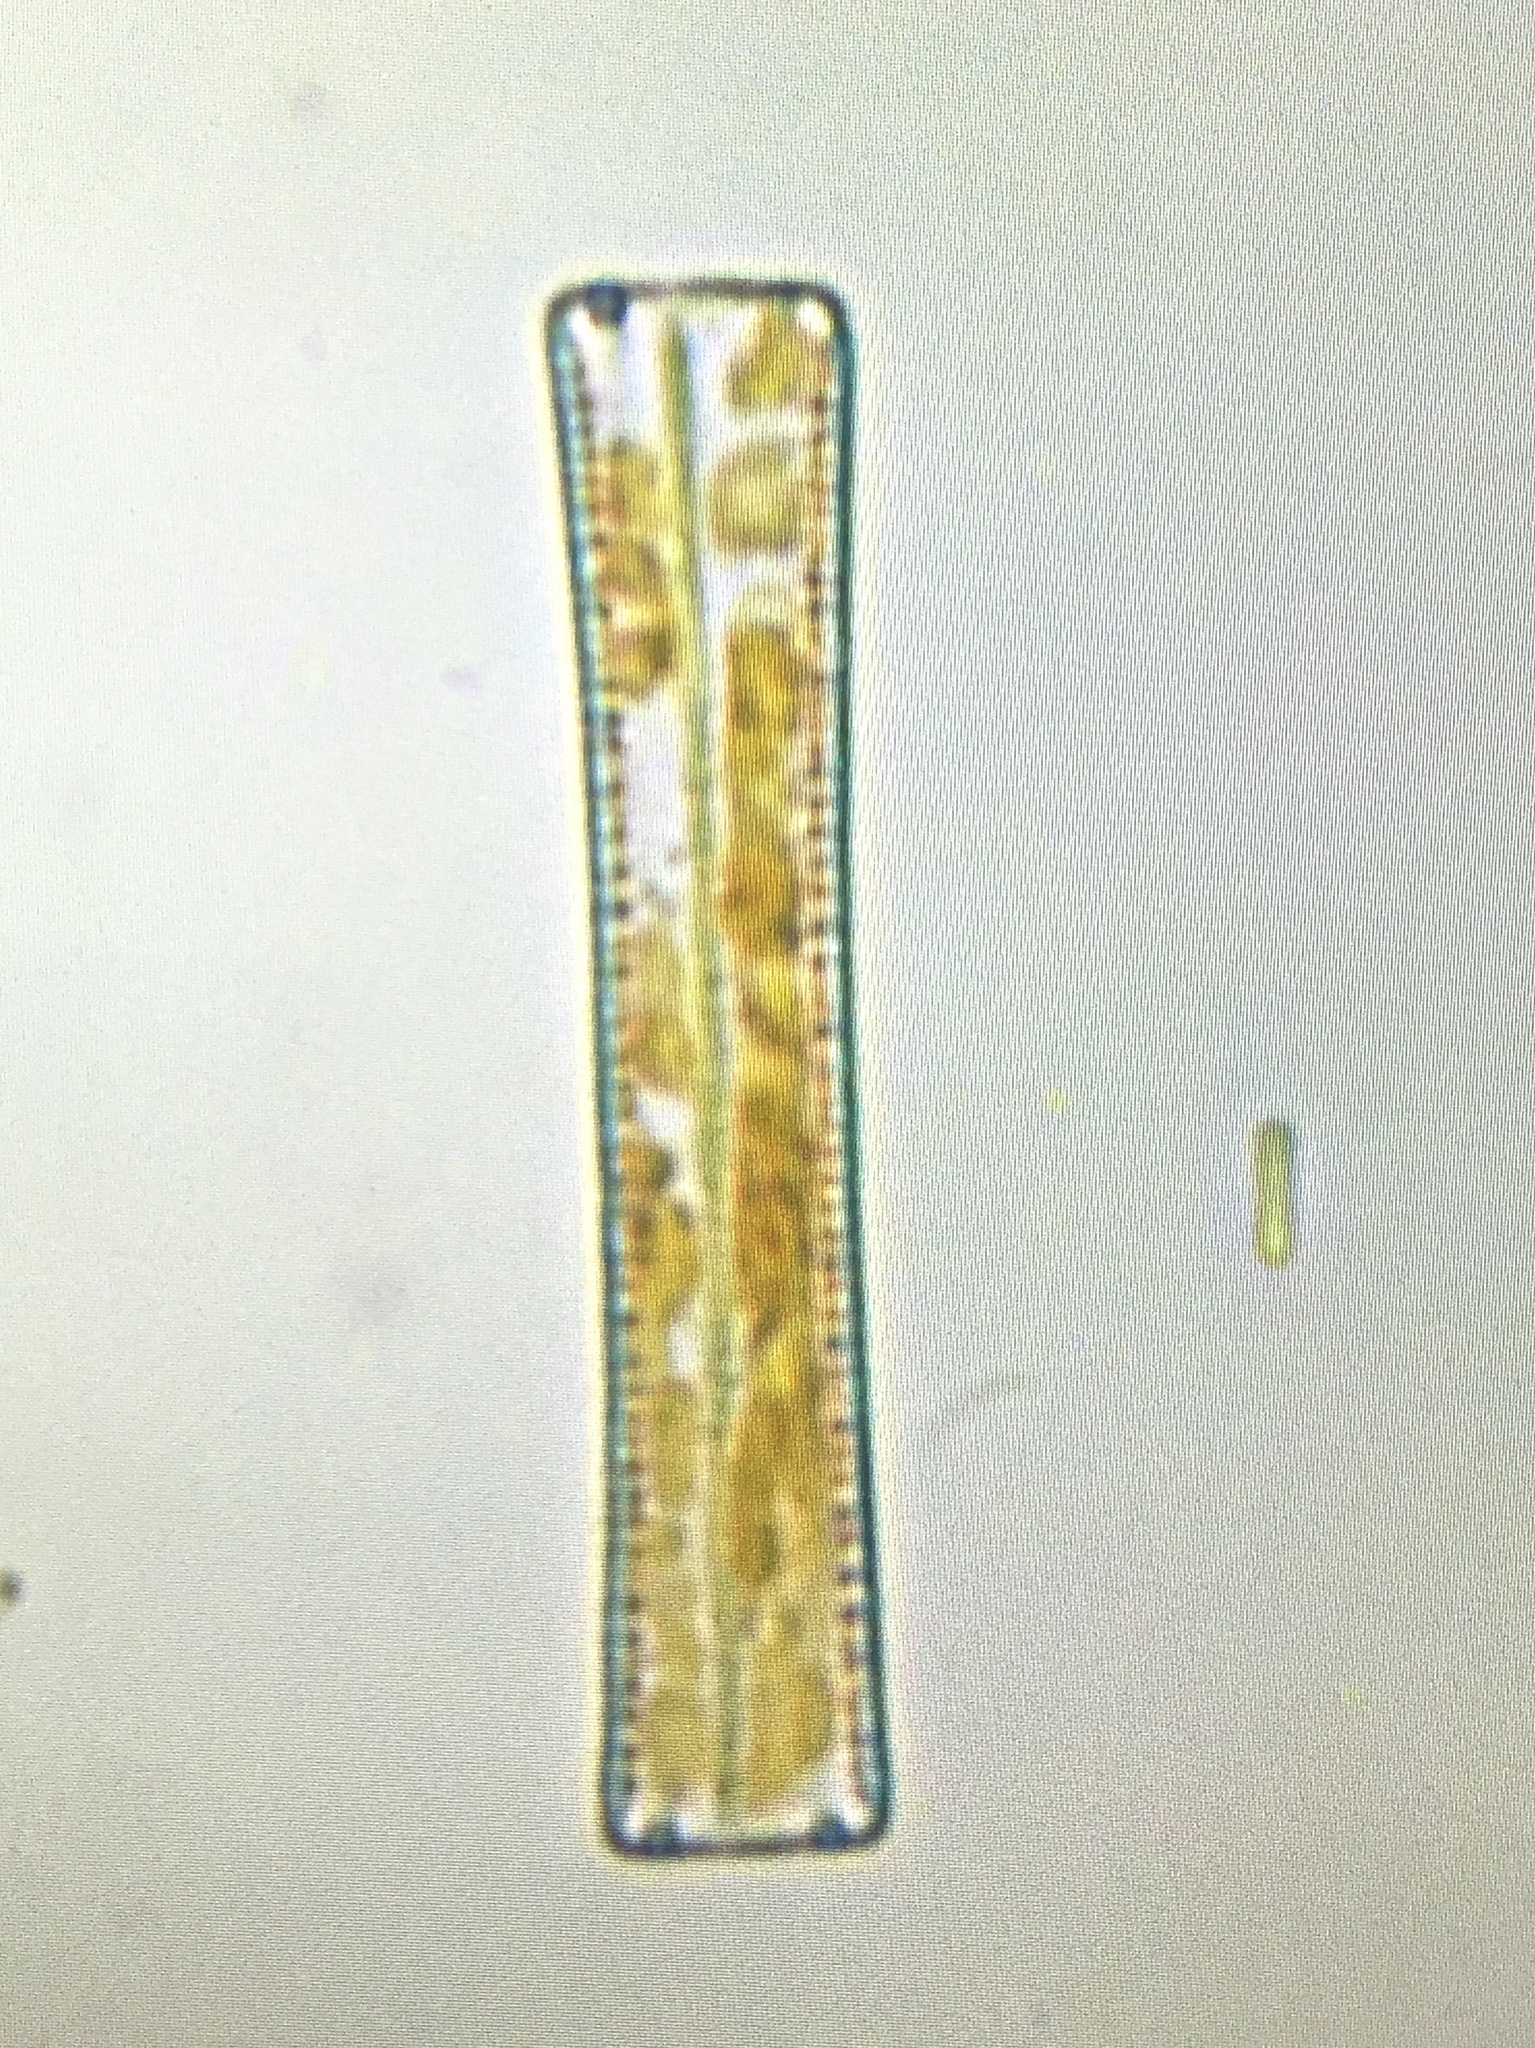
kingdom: Chromista
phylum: Ochrophyta
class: Bacillariophyceae
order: Fragilariales
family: Fragilariaceae
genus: Diatoma
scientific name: Diatoma elongatum
